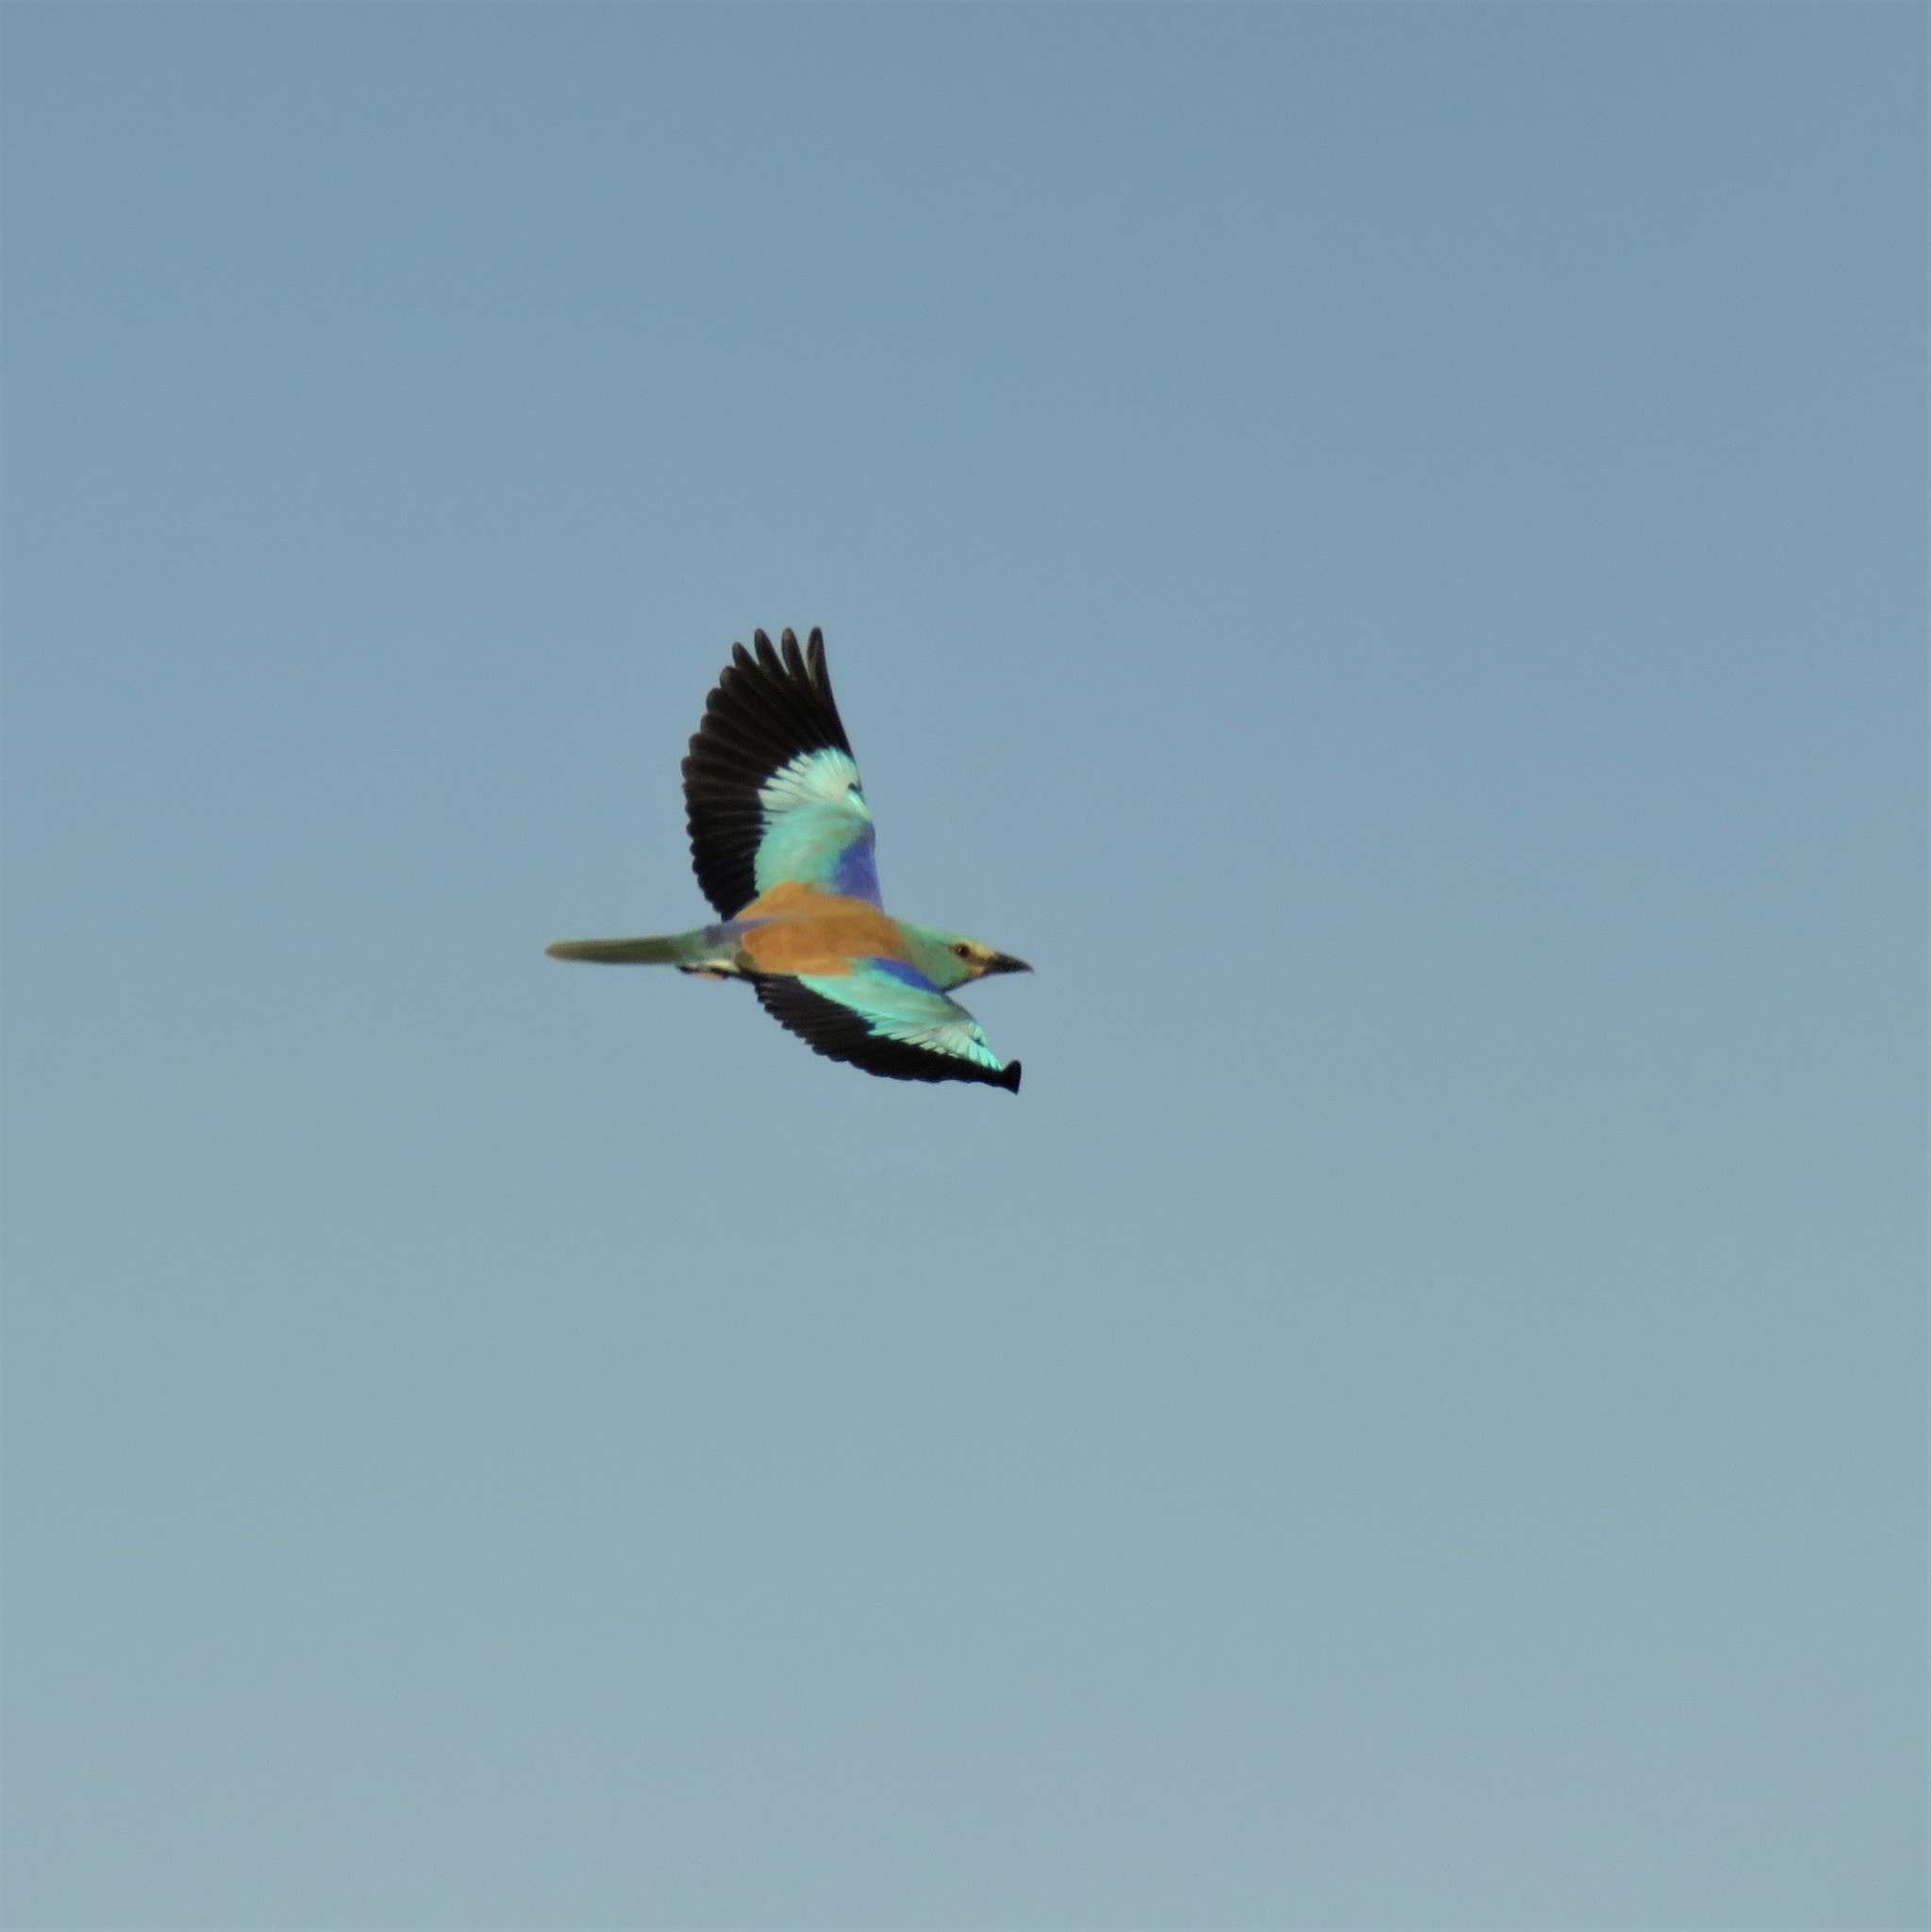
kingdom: Animalia
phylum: Chordata
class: Aves
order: Coraciiformes
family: Coraciidae
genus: Coracias
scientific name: Coracias garrulus
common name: European roller
